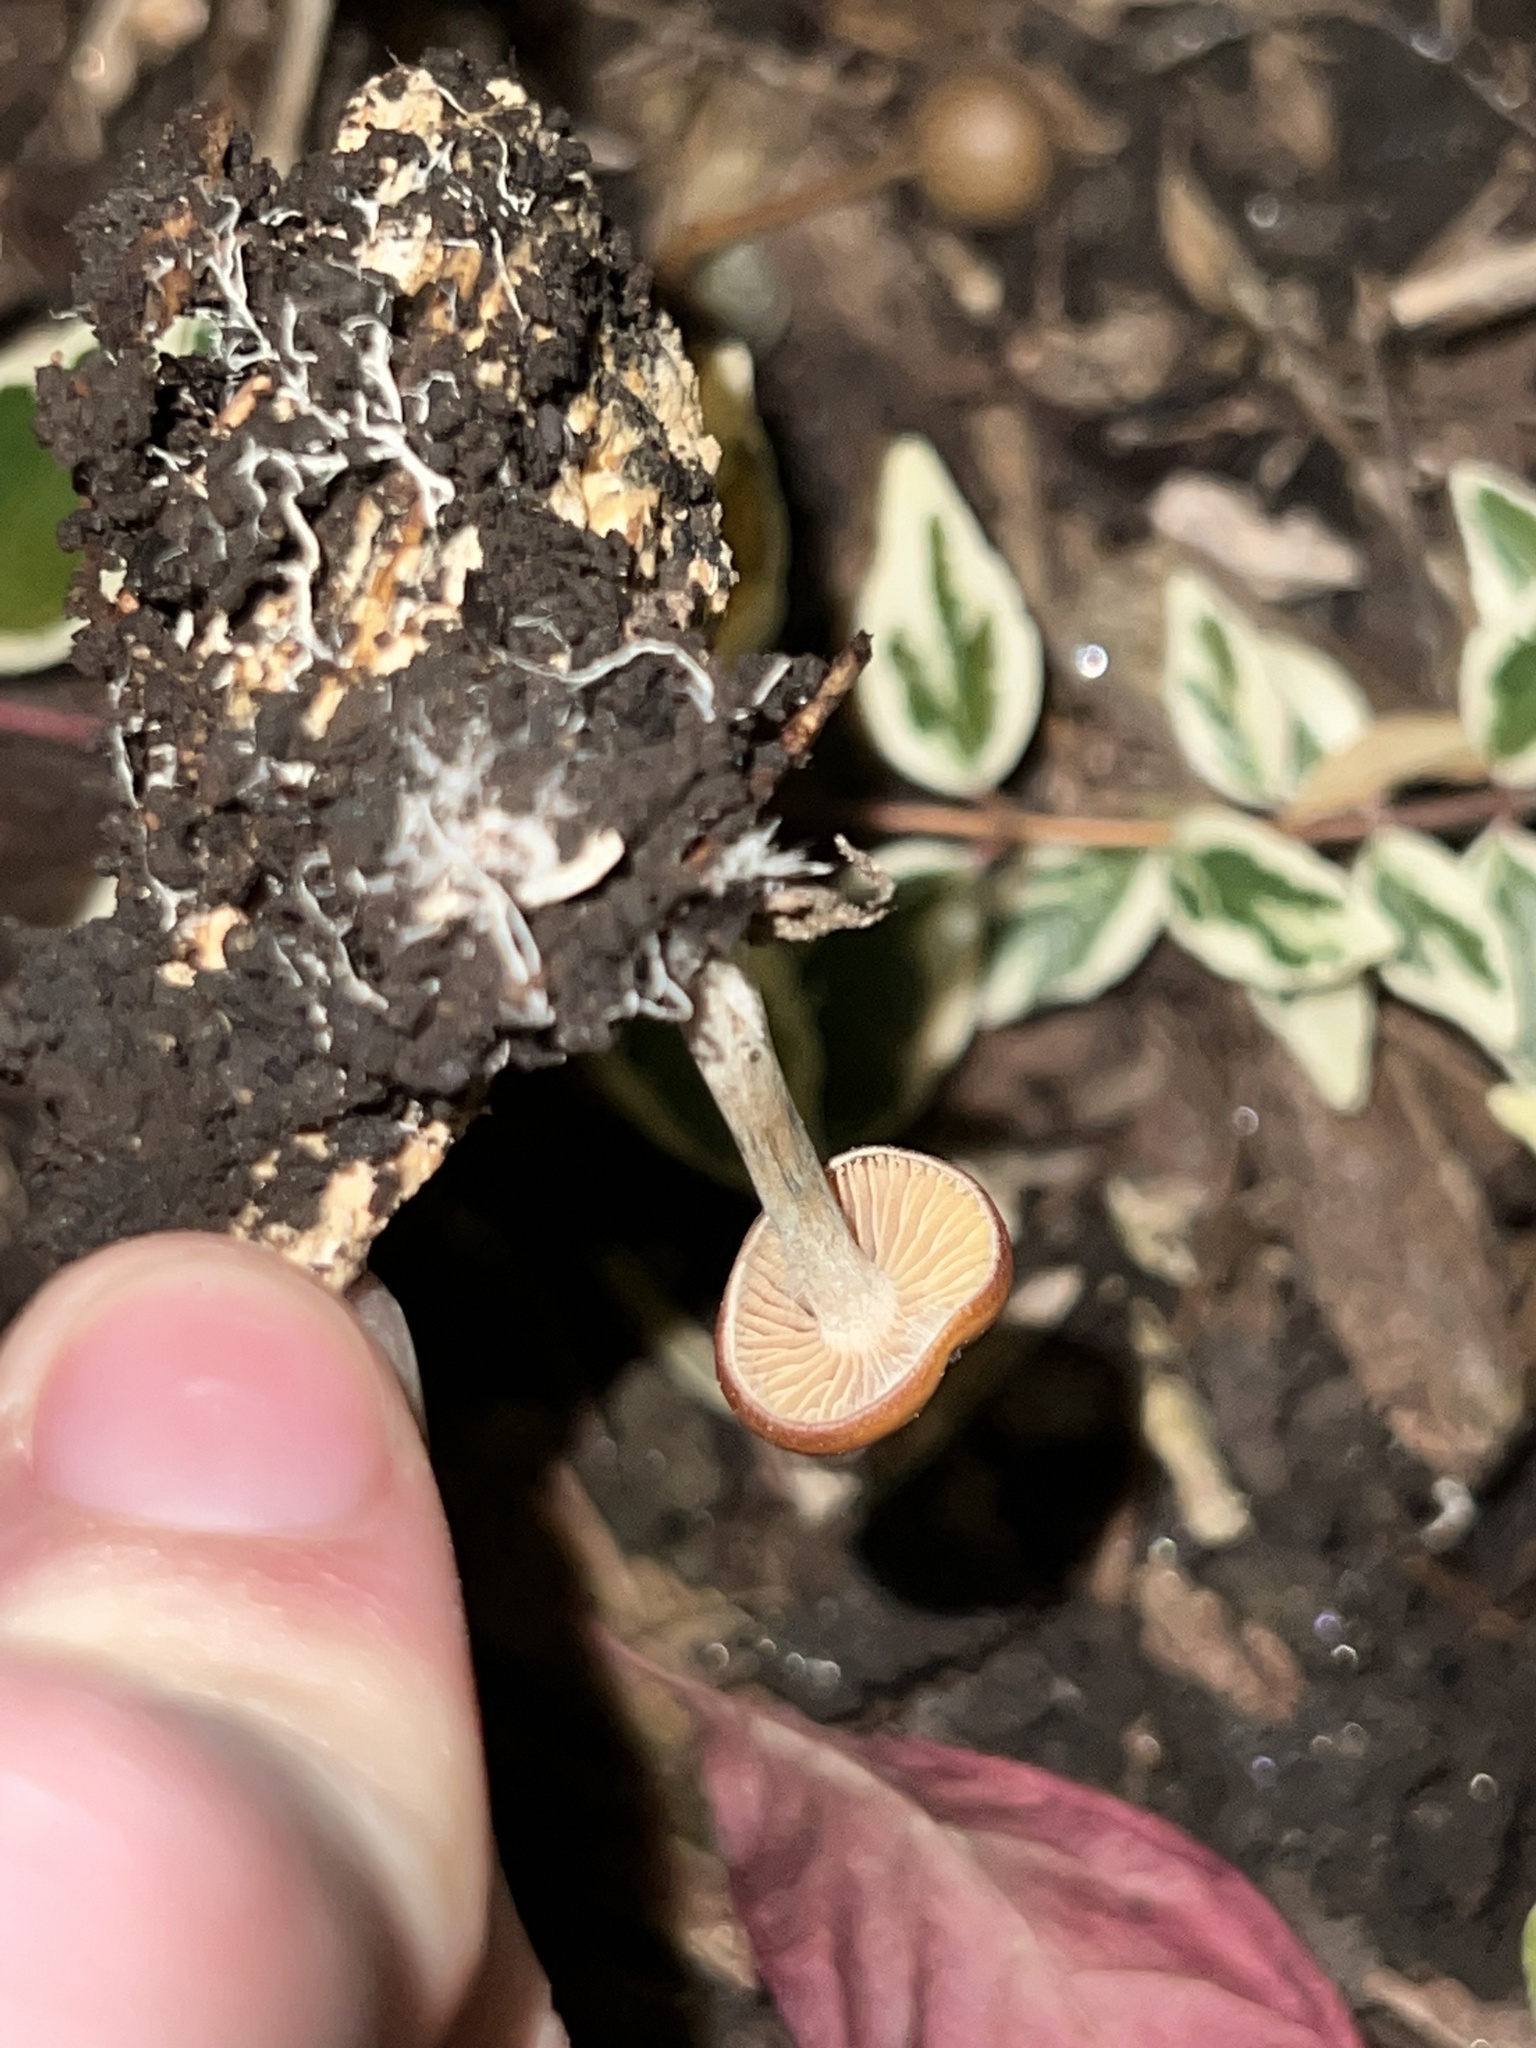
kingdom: Fungi
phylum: Basidiomycota
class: Agaricomycetes
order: Agaricales
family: Hymenogastraceae
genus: Psilocybe
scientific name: Psilocybe cyanescens
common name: Blueleg brownie
